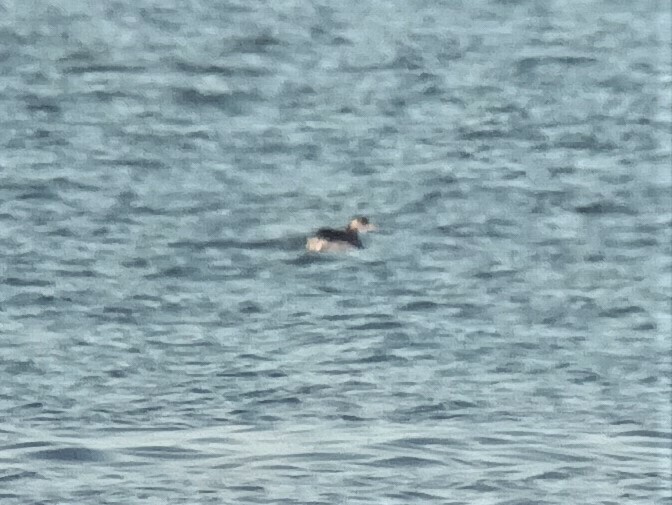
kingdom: Animalia
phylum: Chordata
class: Aves
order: Podicipediformes
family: Podicipedidae
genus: Podiceps
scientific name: Podiceps grisegena
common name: Red-necked grebe
